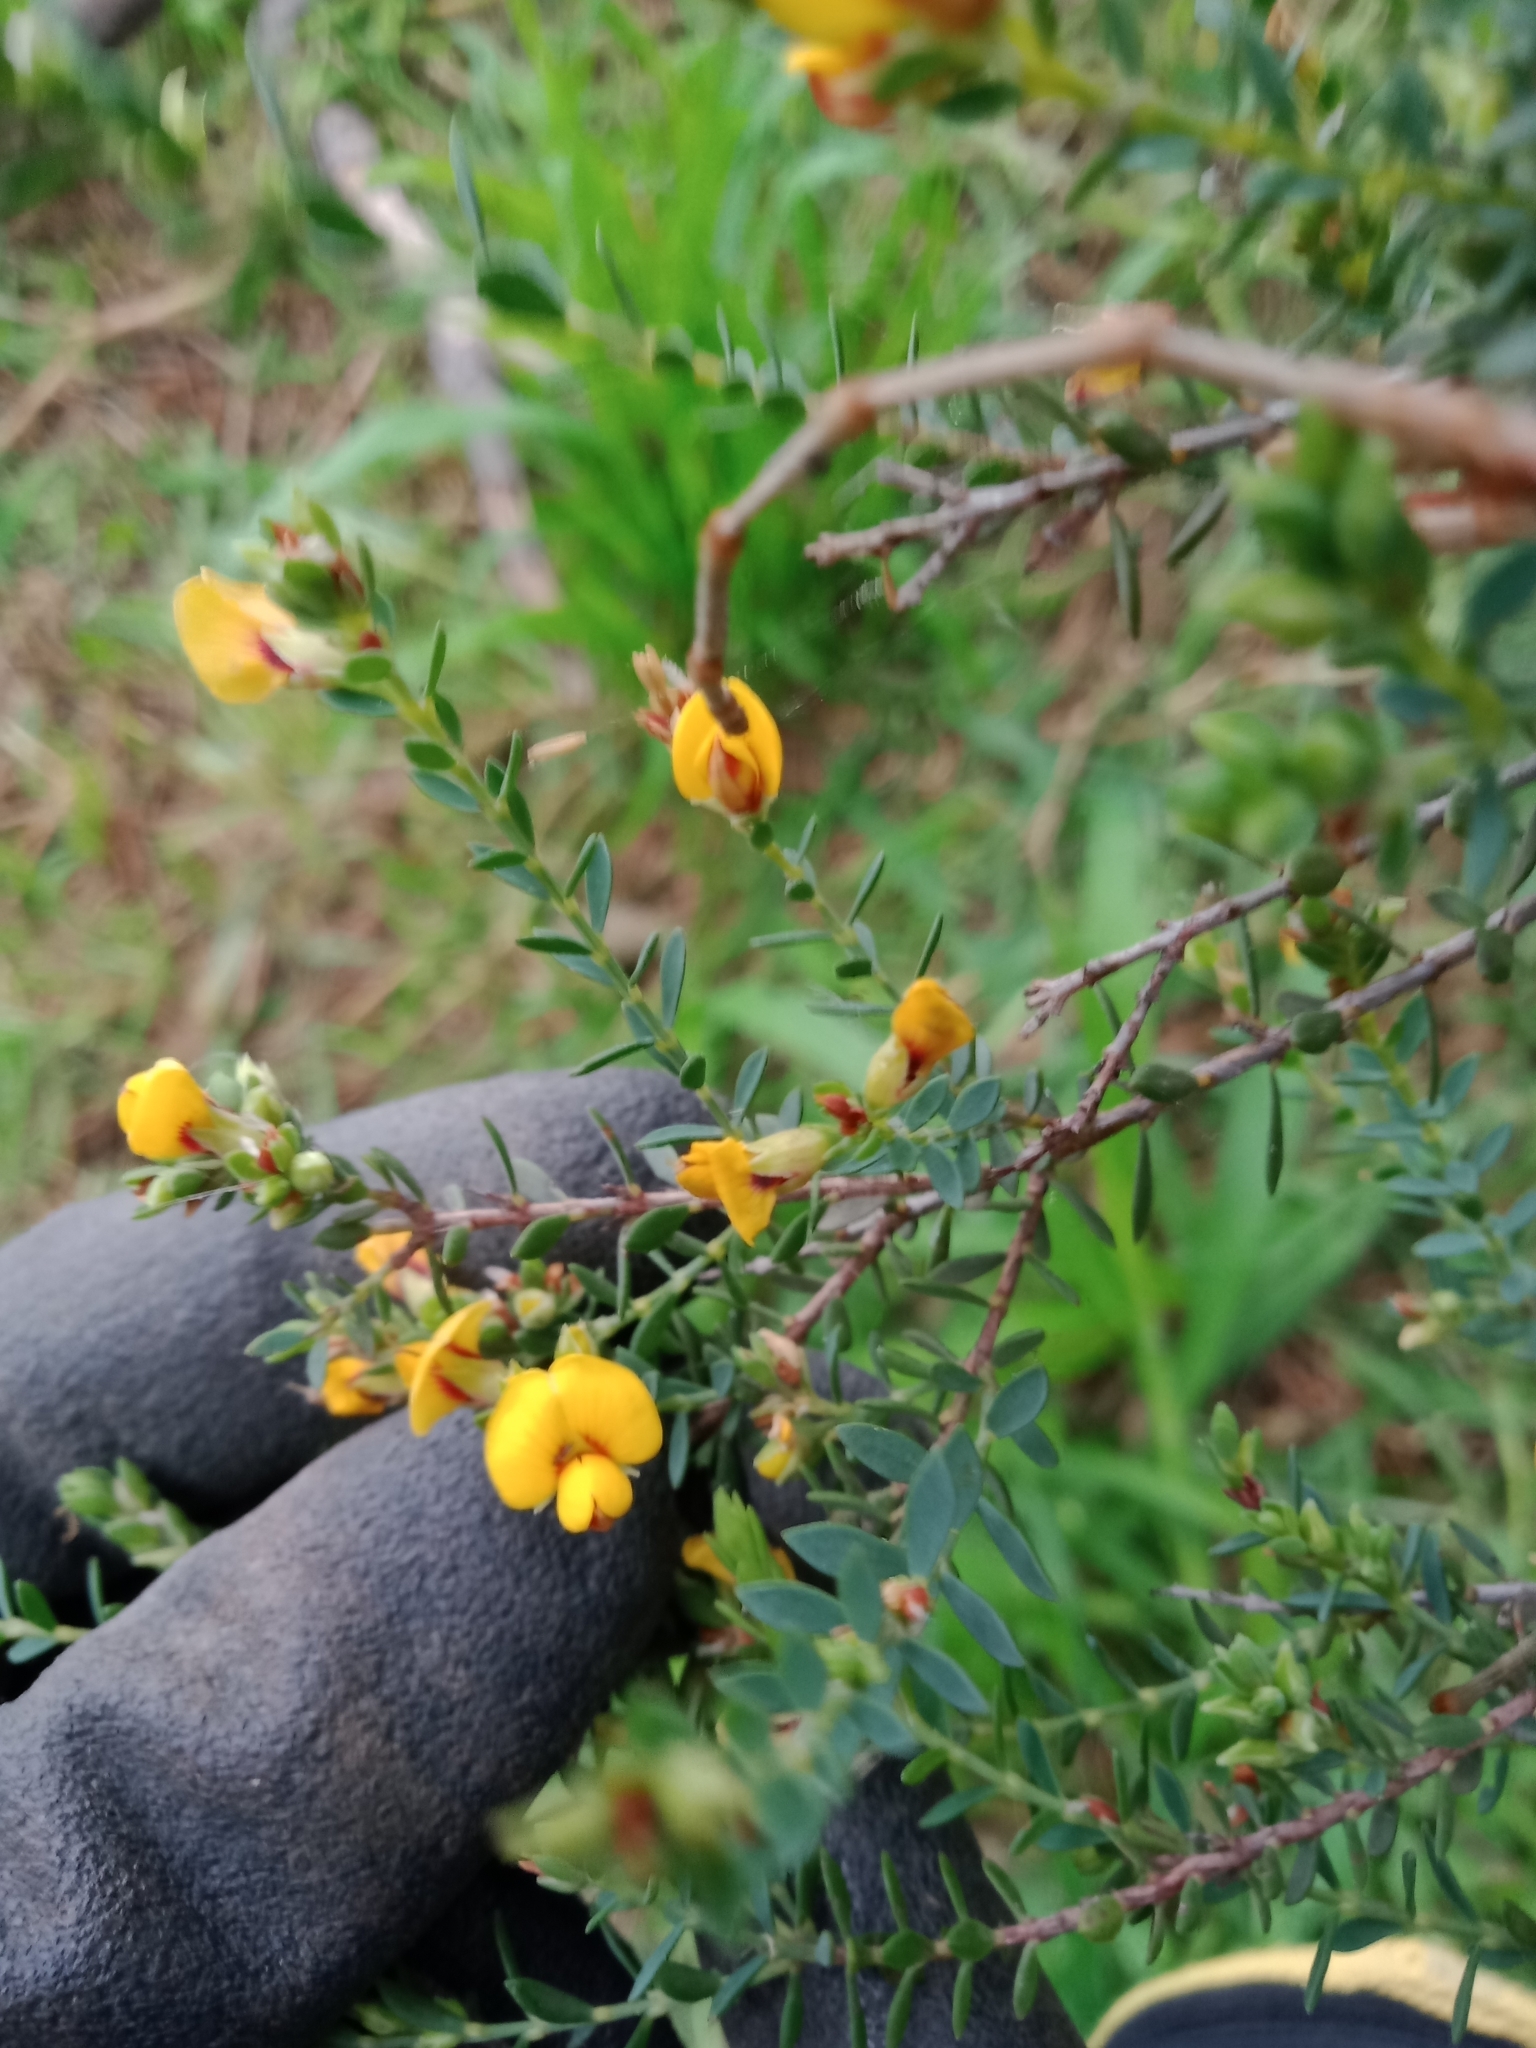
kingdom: Plantae
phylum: Tracheophyta
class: Magnoliopsida
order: Fabales
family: Fabaceae
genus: Eutaxia
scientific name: Eutaxia microphylla
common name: Mallee bush-pea
